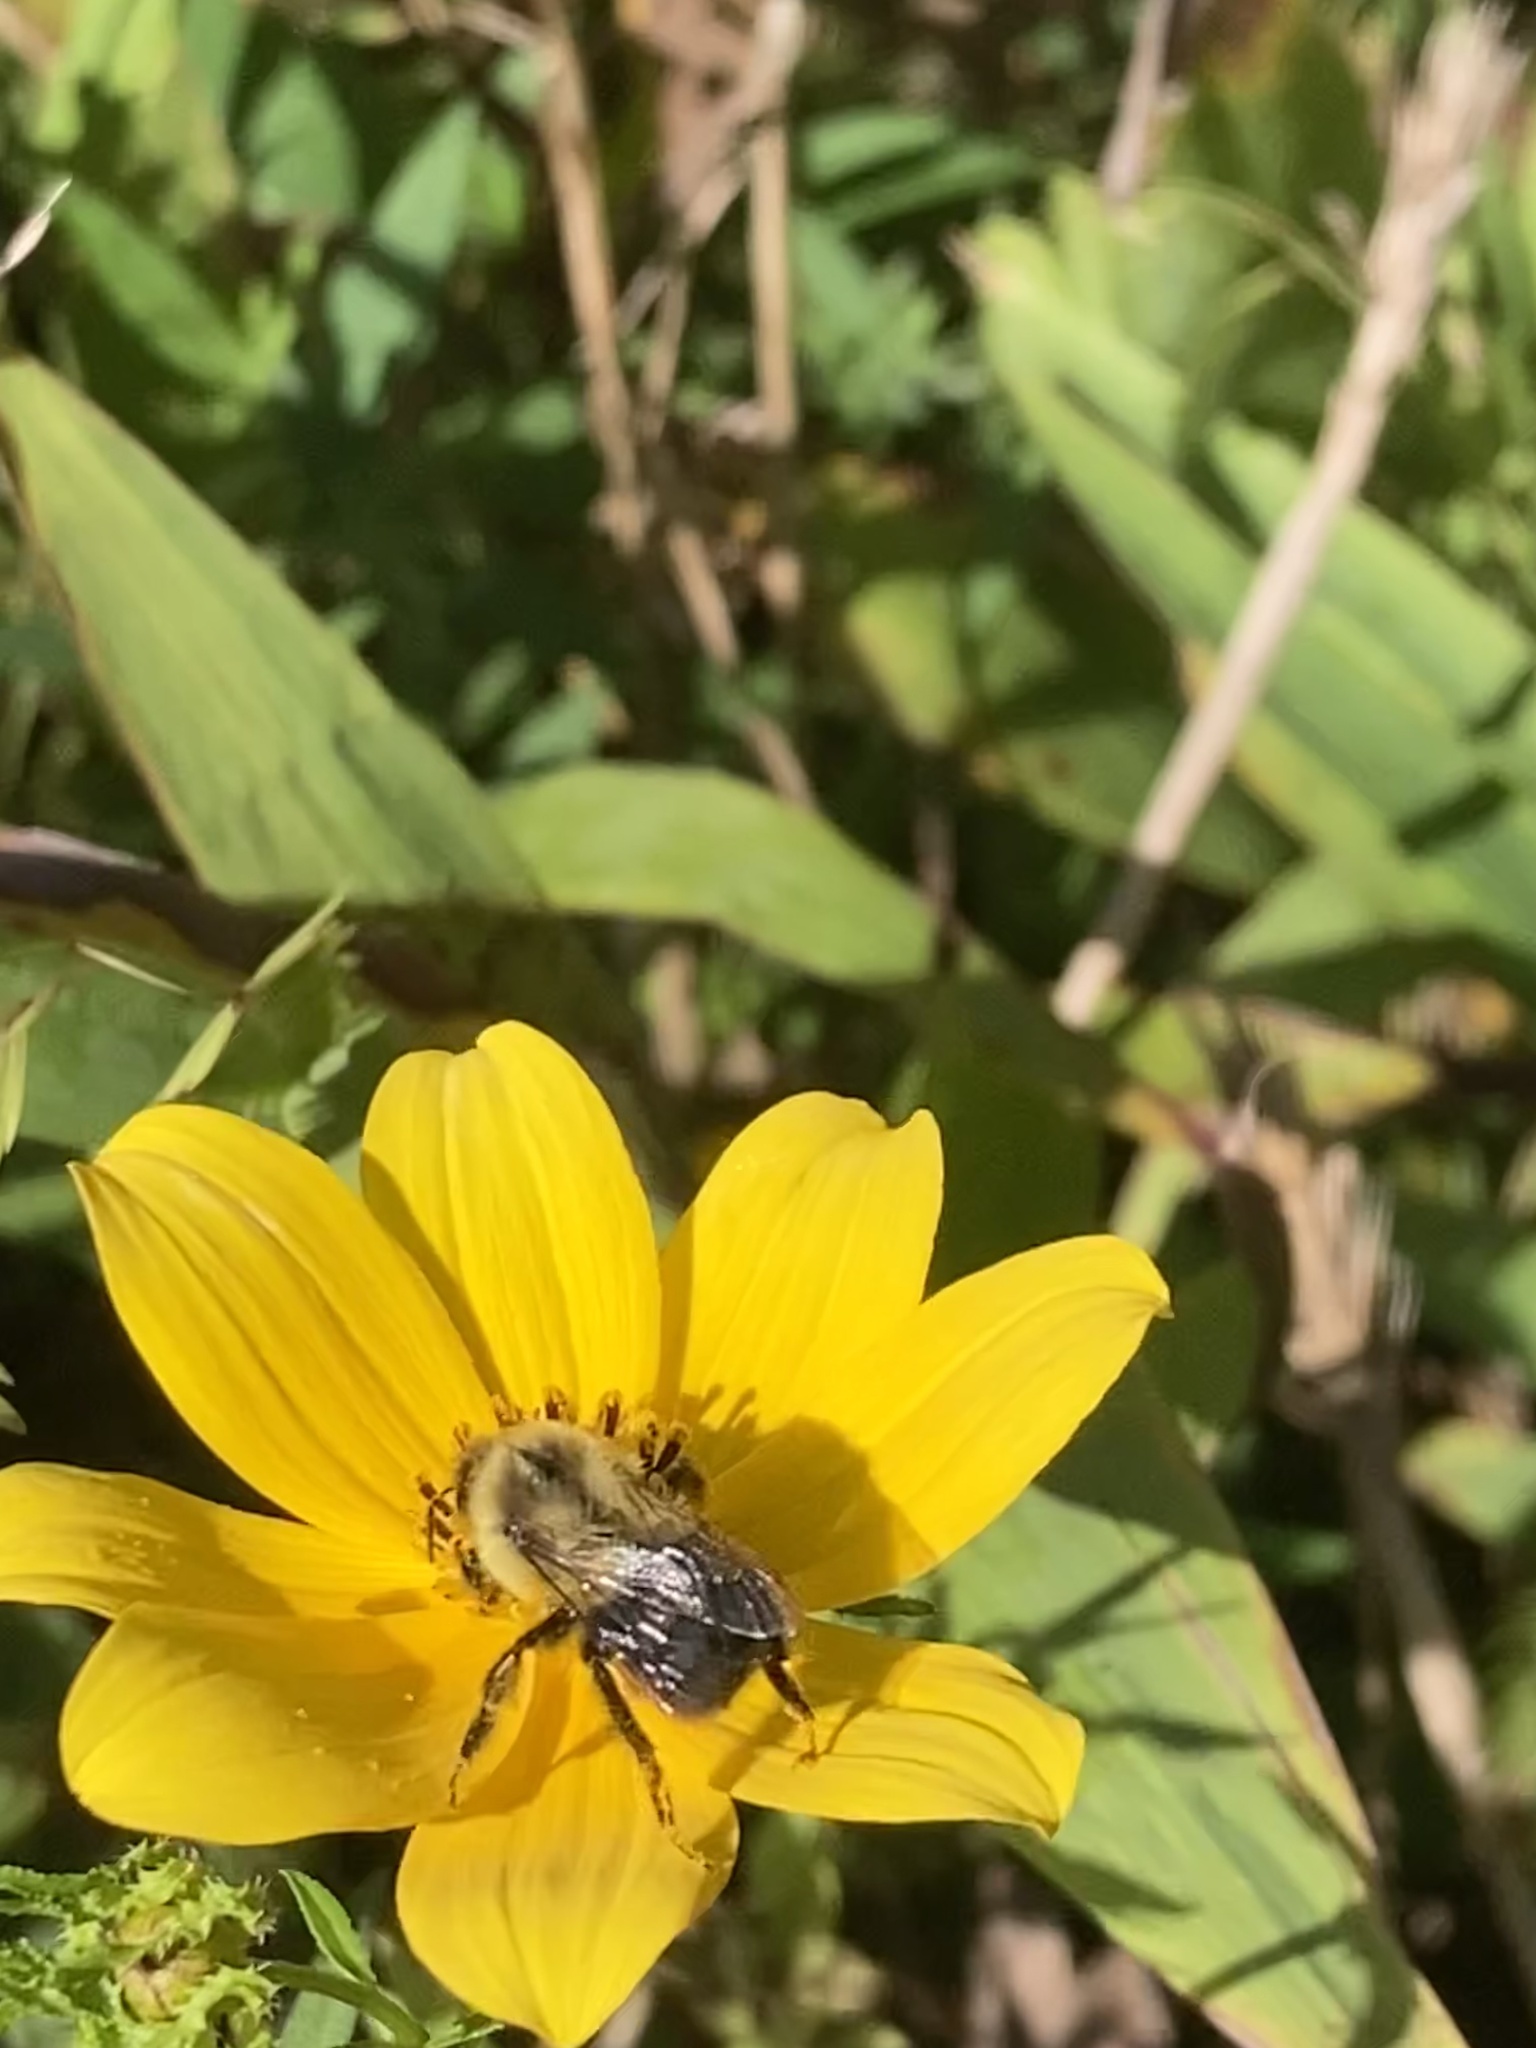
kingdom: Animalia
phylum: Arthropoda
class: Insecta
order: Hymenoptera
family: Apidae
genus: Bombus
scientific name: Bombus impatiens
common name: Common eastern bumble bee
